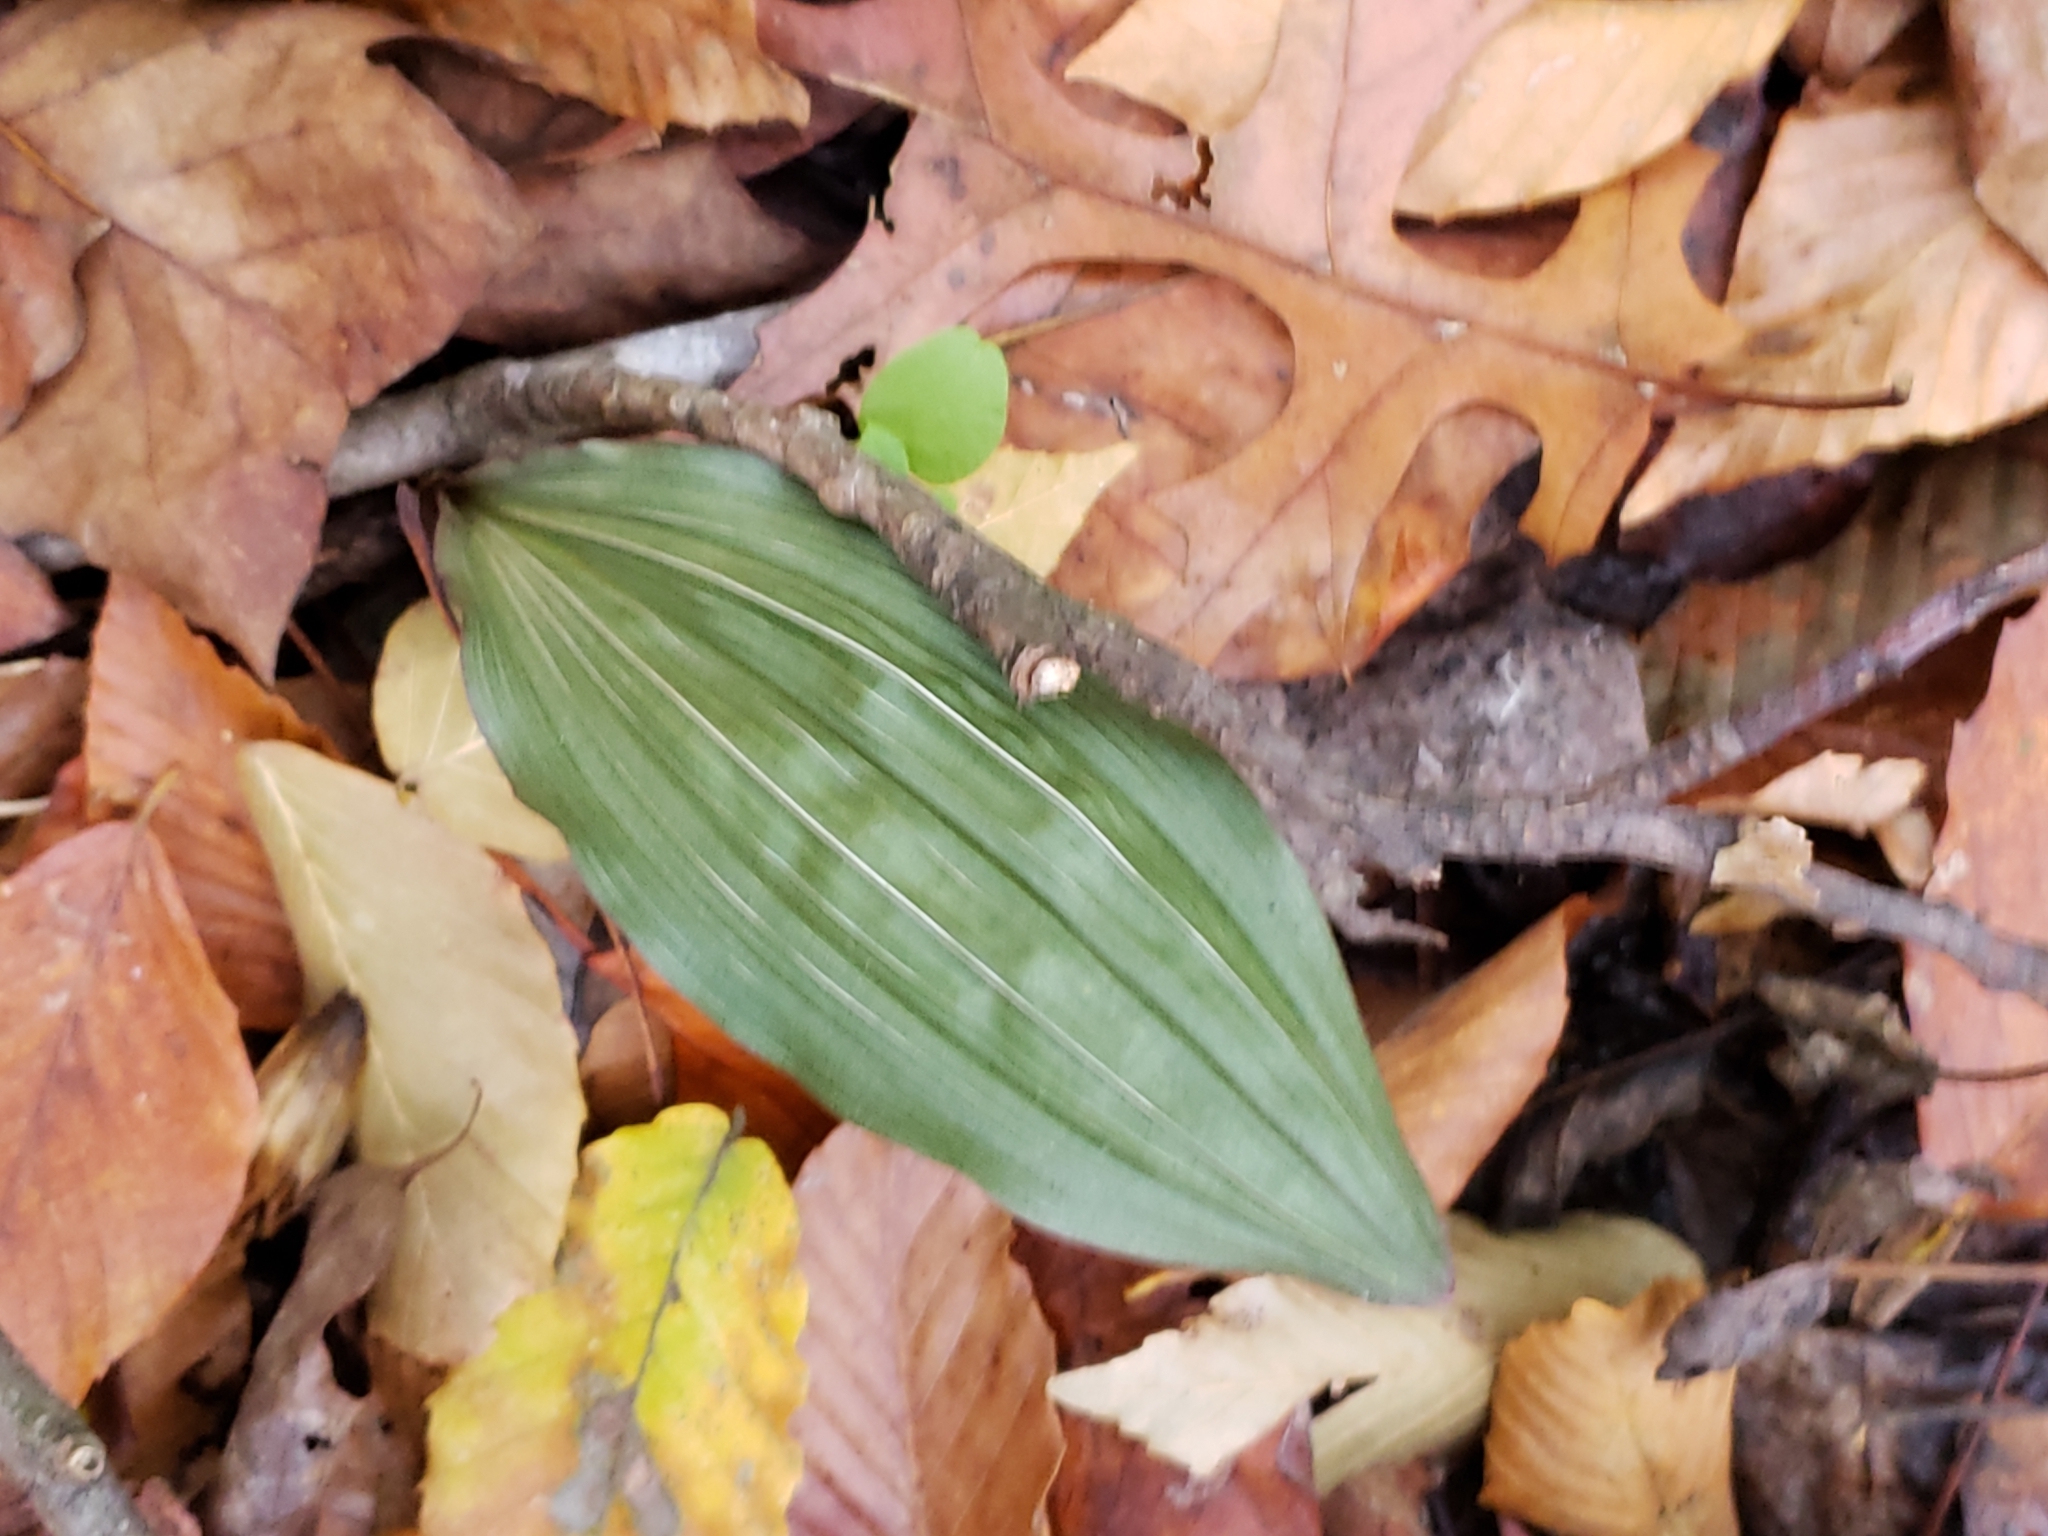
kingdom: Plantae
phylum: Tracheophyta
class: Liliopsida
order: Asparagales
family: Orchidaceae
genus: Aplectrum
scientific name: Aplectrum hyemale
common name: Adam-and-eve
